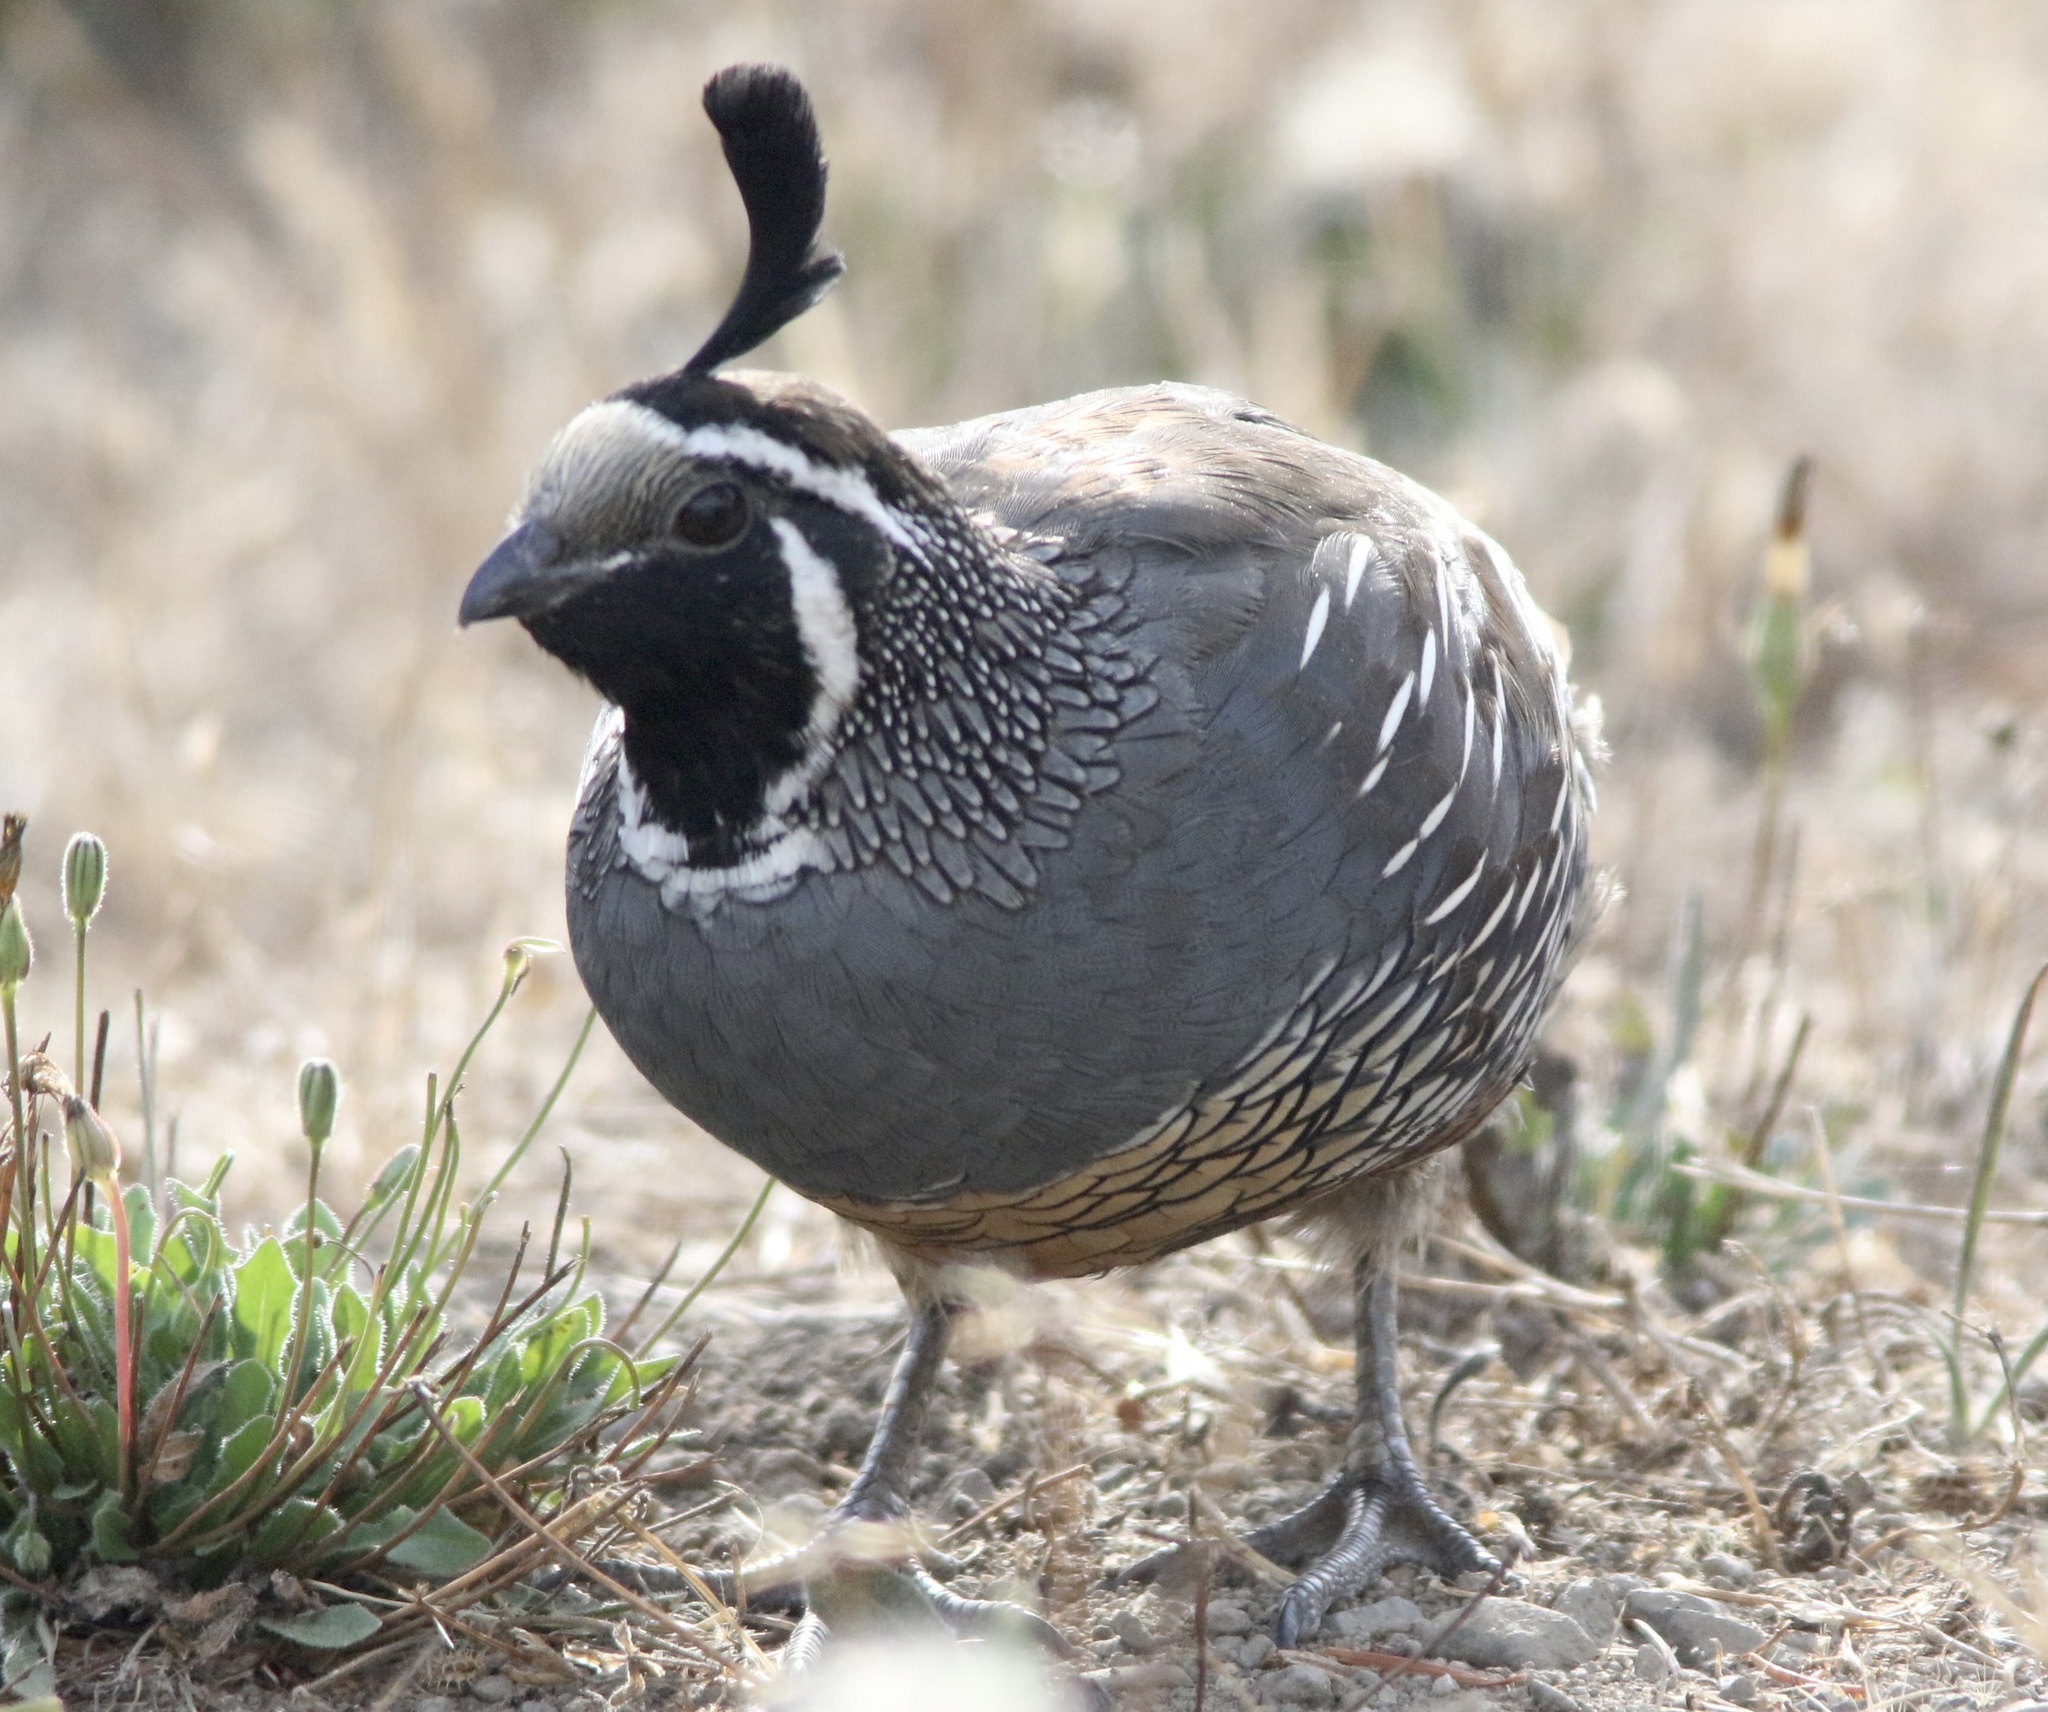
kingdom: Animalia
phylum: Chordata
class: Aves
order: Galliformes
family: Odontophoridae
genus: Callipepla
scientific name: Callipepla californica
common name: California quail
